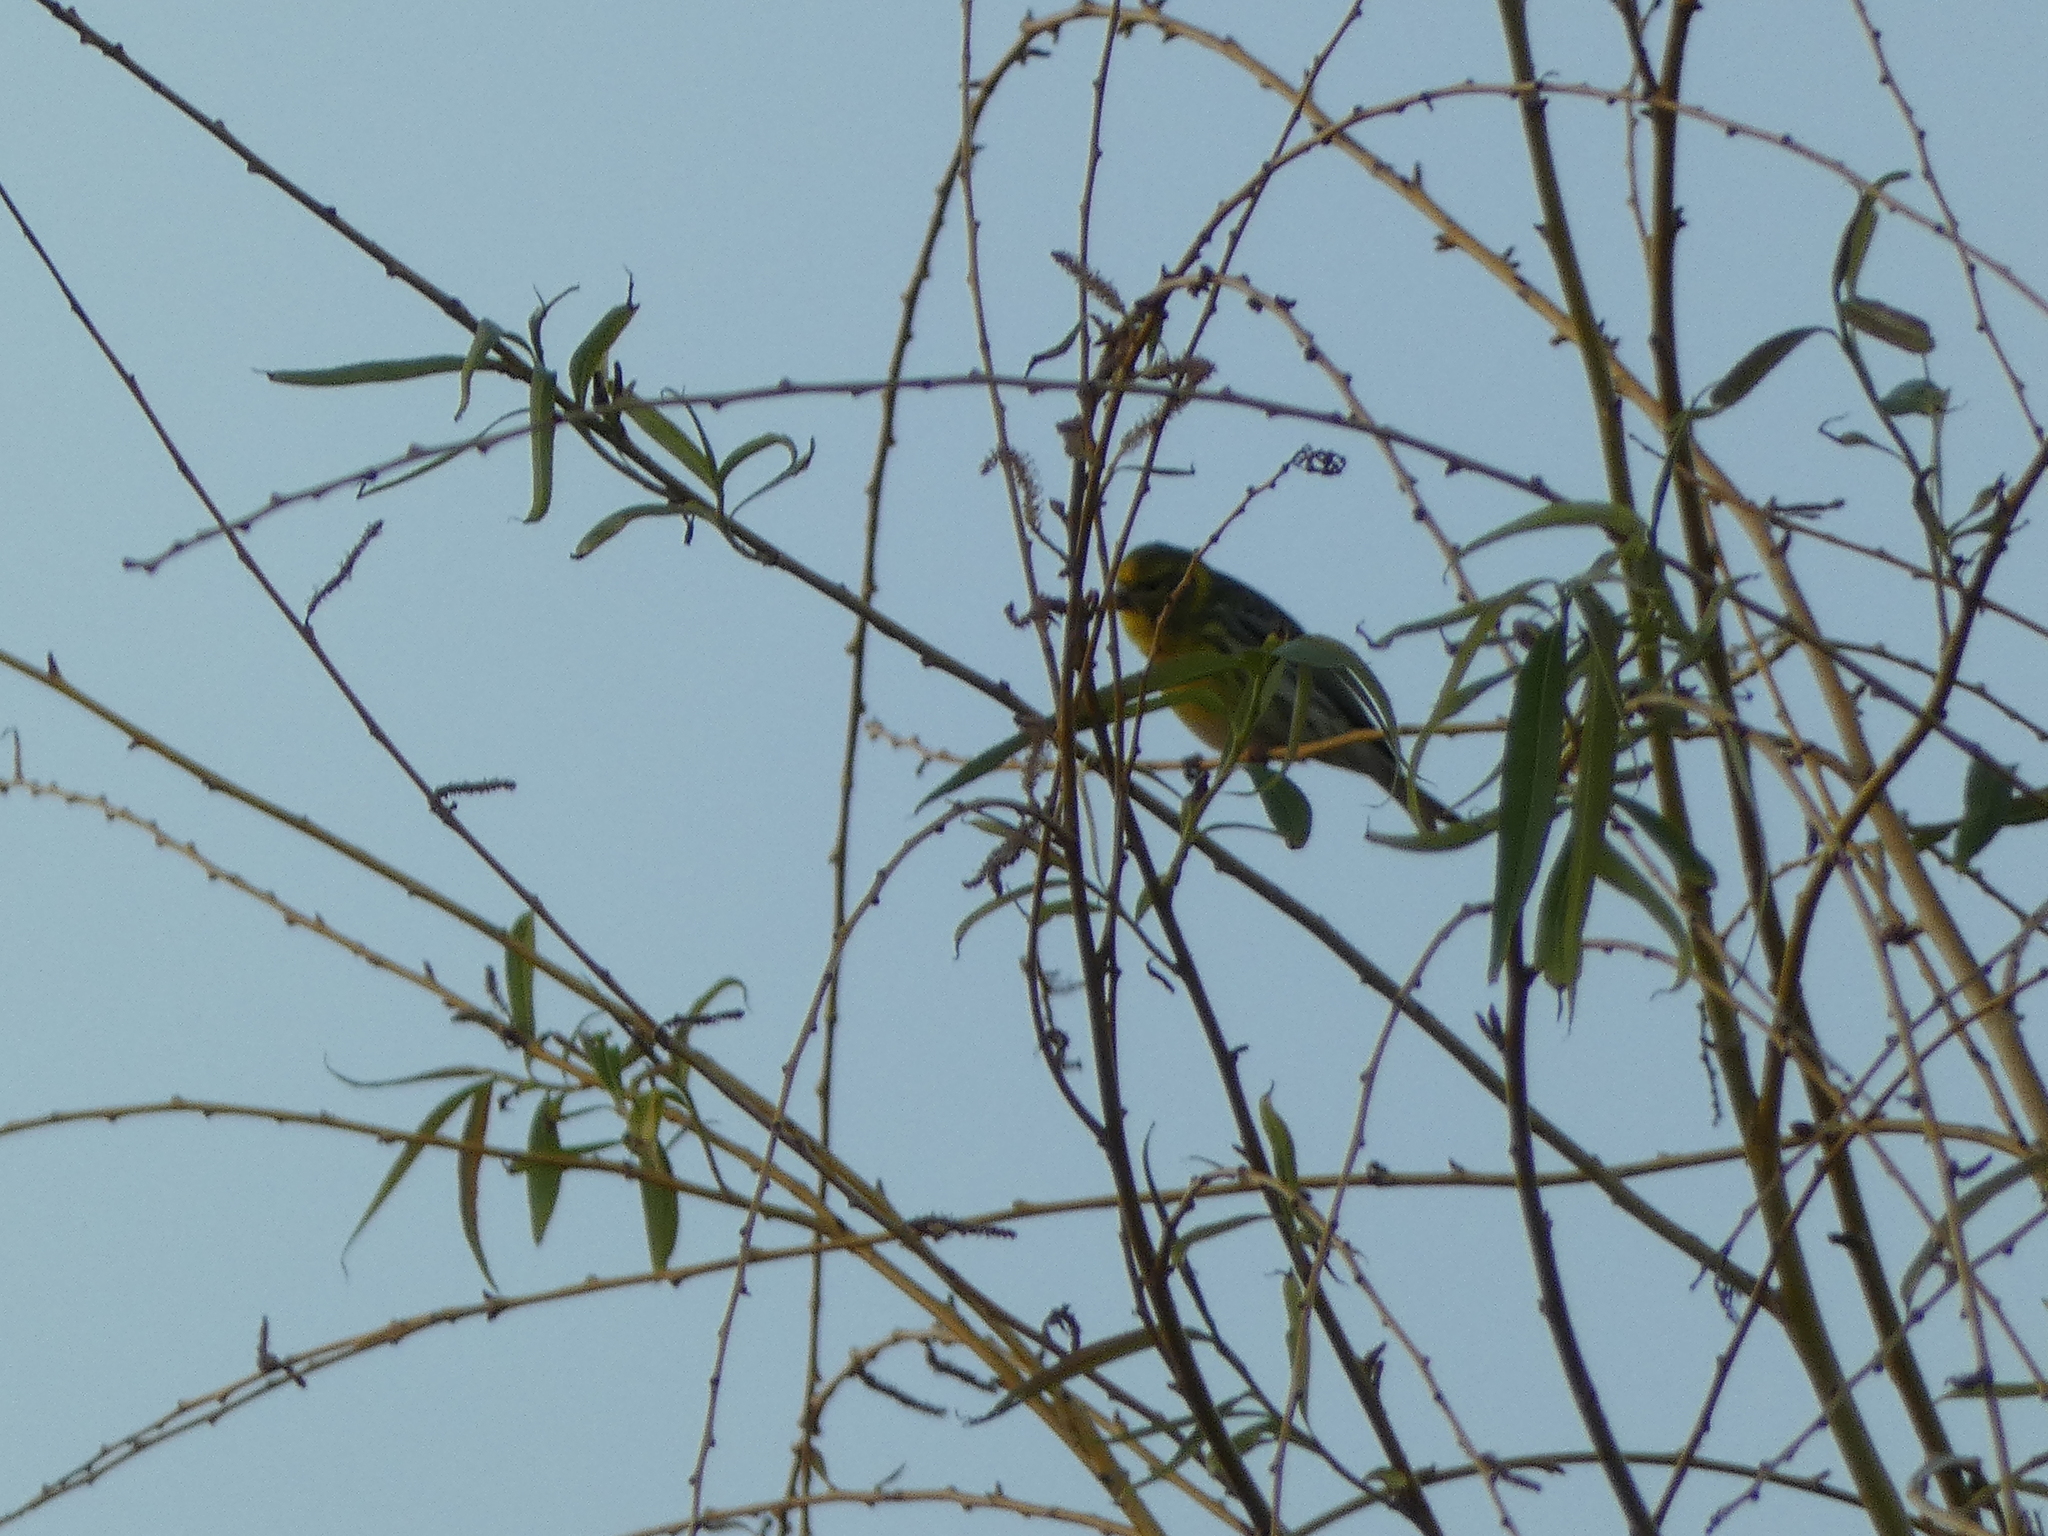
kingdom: Animalia
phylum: Chordata
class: Aves
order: Passeriformes
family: Fringillidae
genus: Serinus
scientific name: Serinus serinus
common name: European serin
